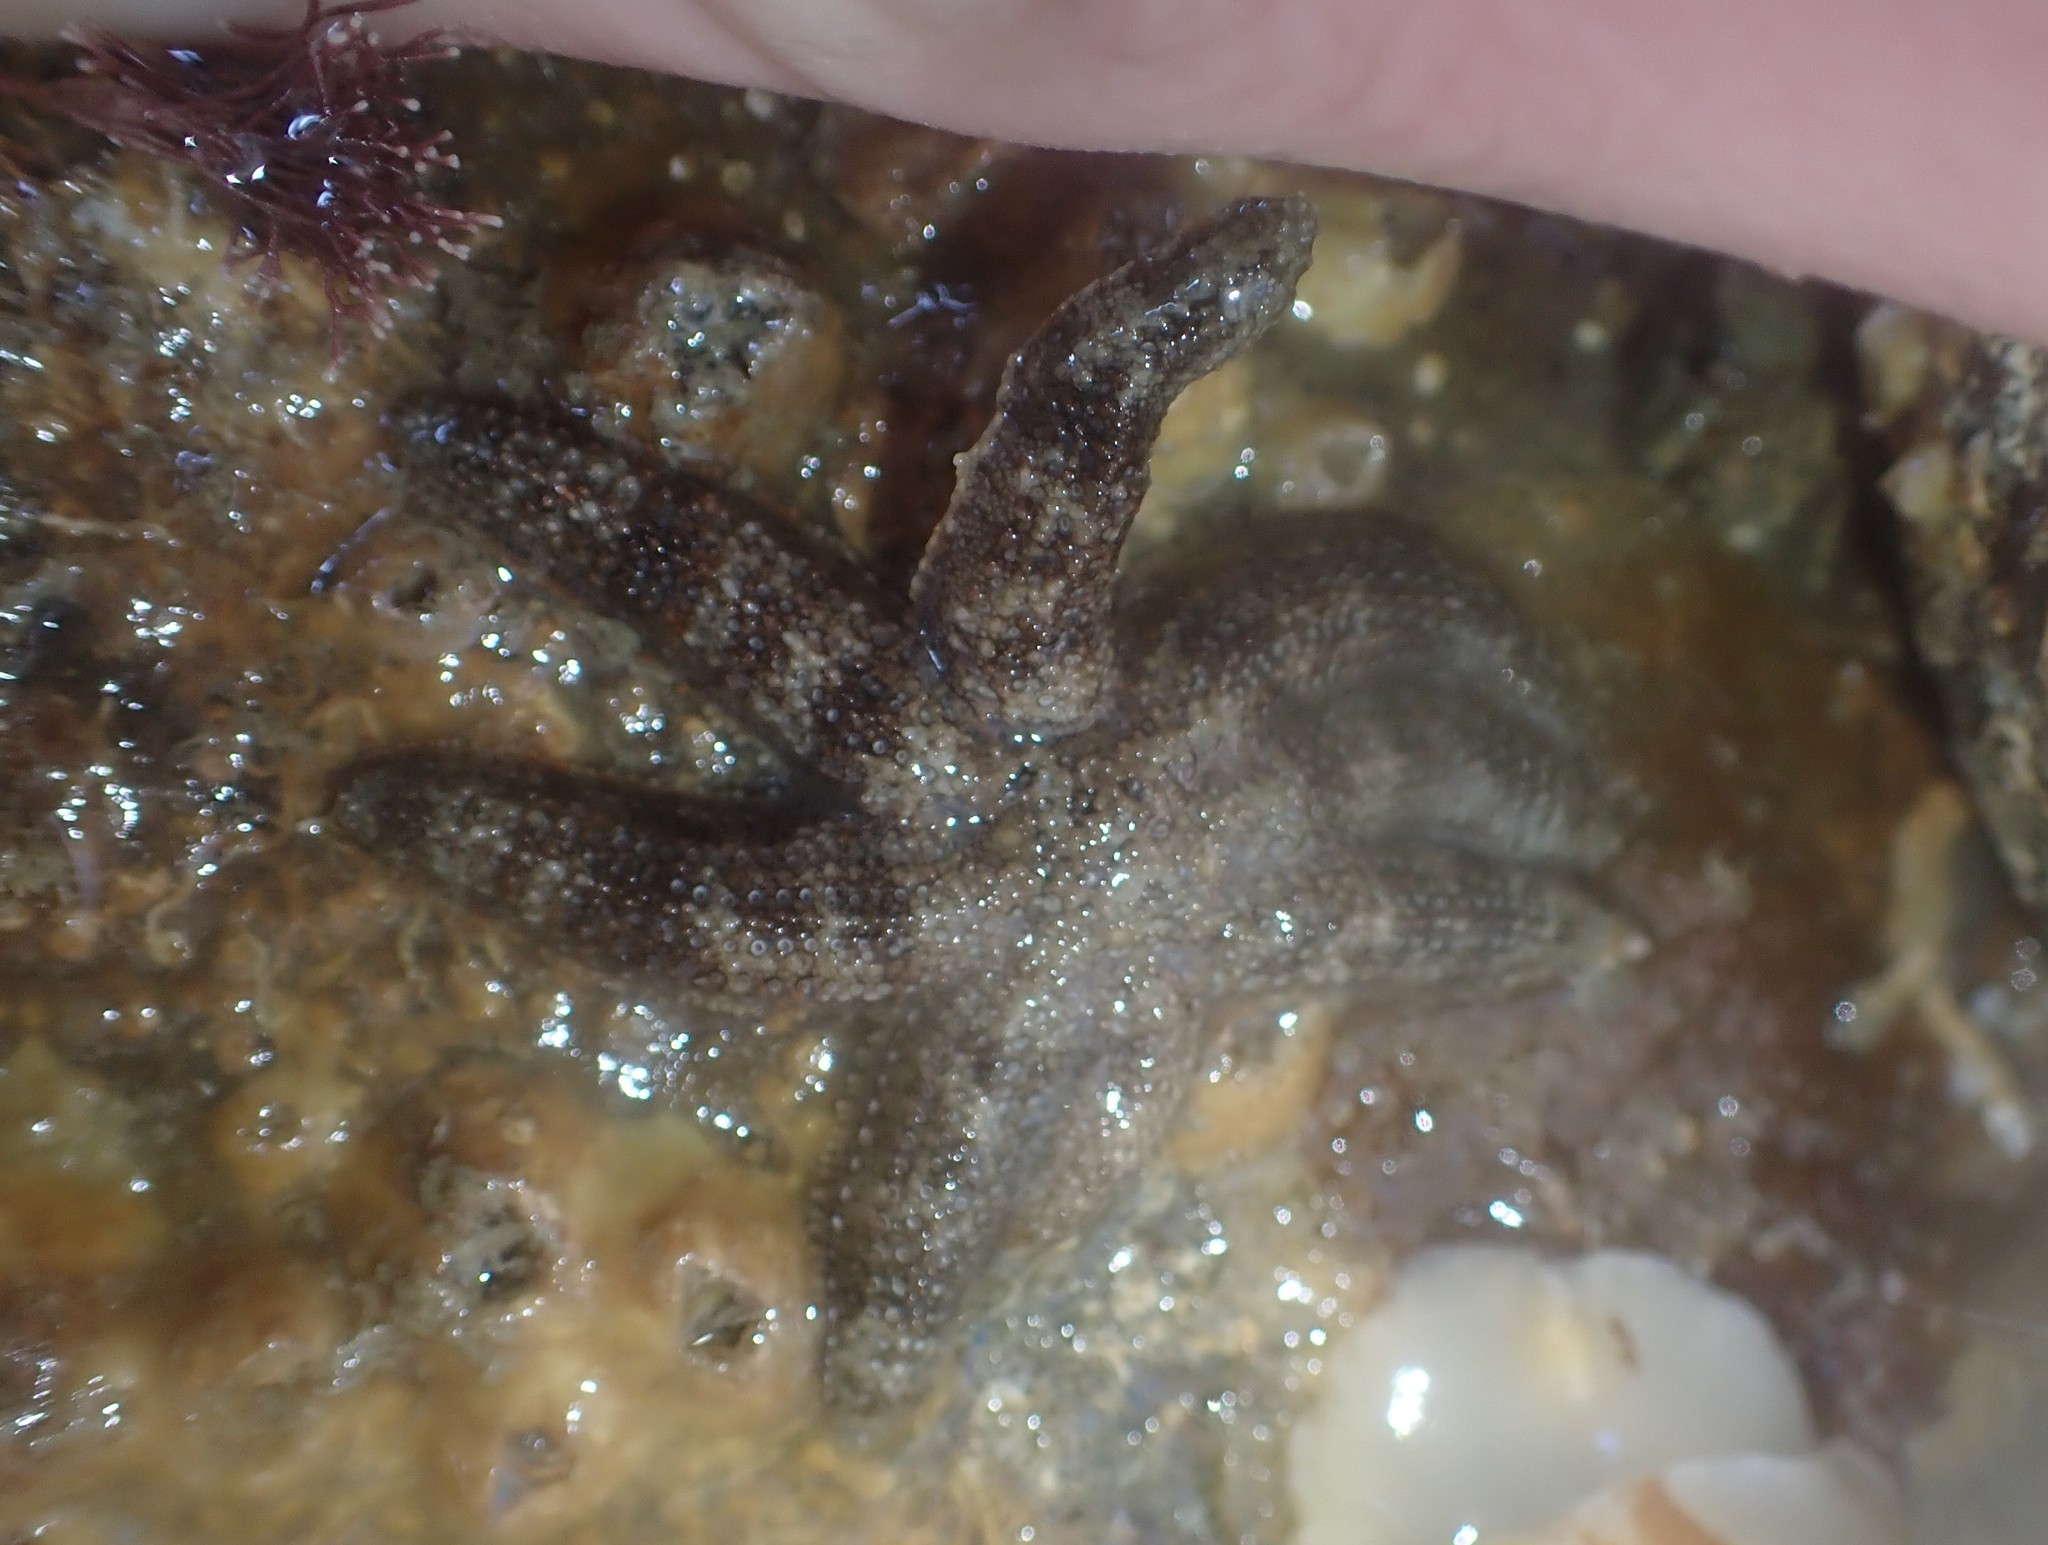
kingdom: Animalia
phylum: Echinodermata
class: Asteroidea
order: Forcipulatida
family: Stichasteridae
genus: Allostichaster
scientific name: Allostichaster polyplax
